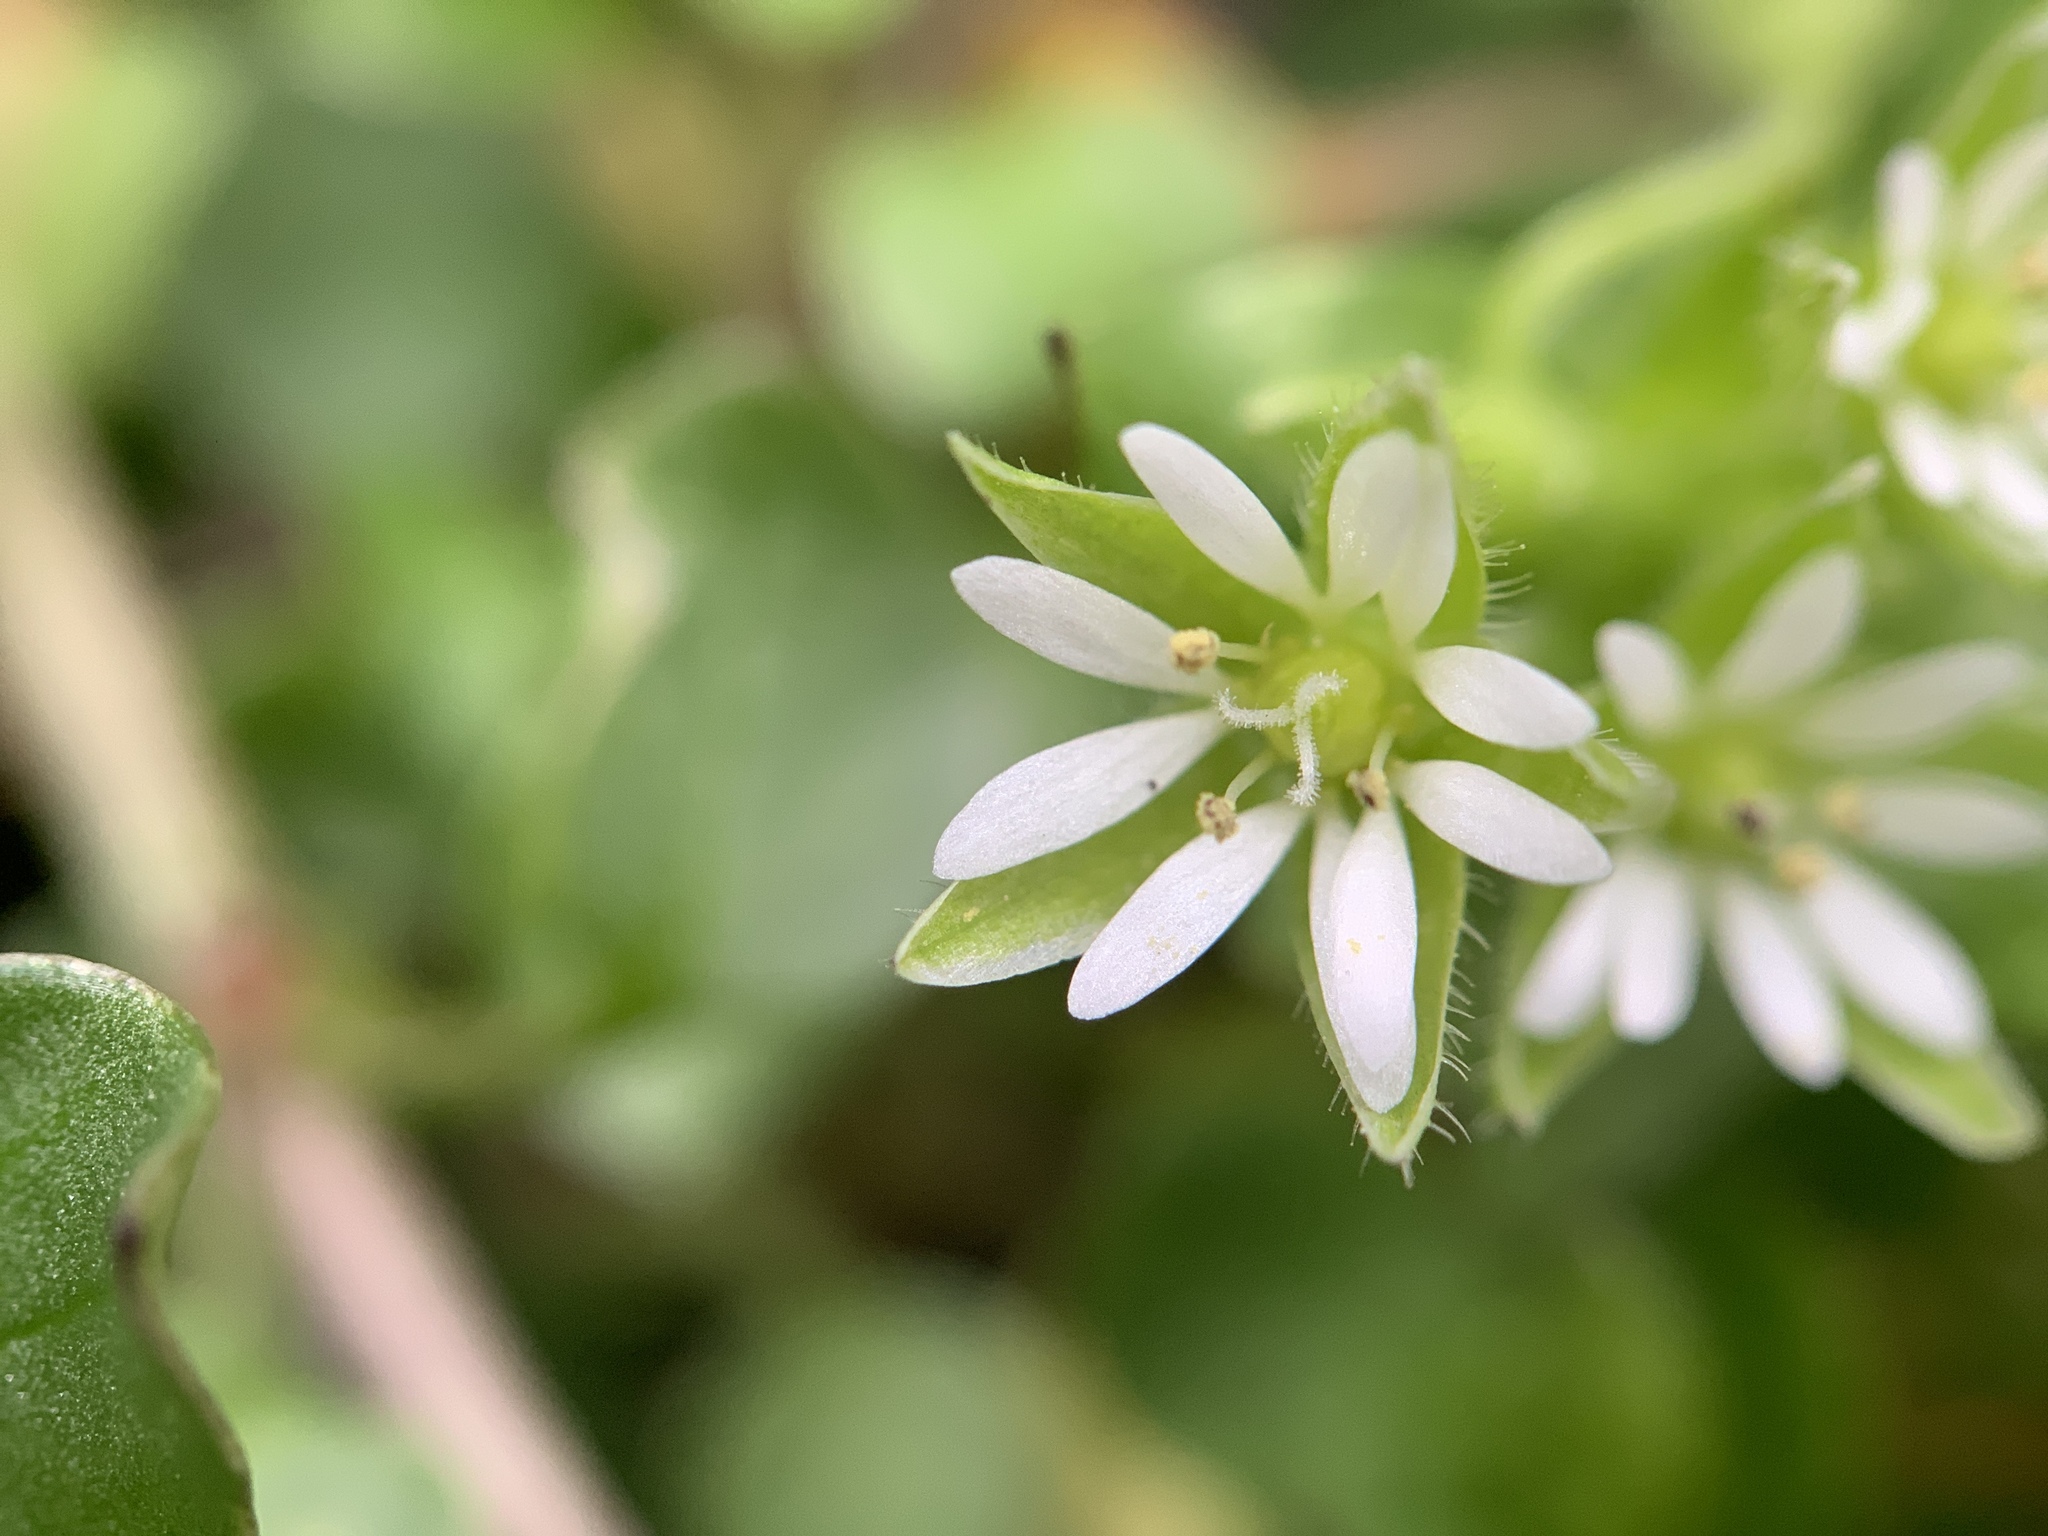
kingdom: Plantae
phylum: Tracheophyta
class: Magnoliopsida
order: Caryophyllales
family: Caryophyllaceae
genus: Stellaria
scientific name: Stellaria media
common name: Common chickweed
